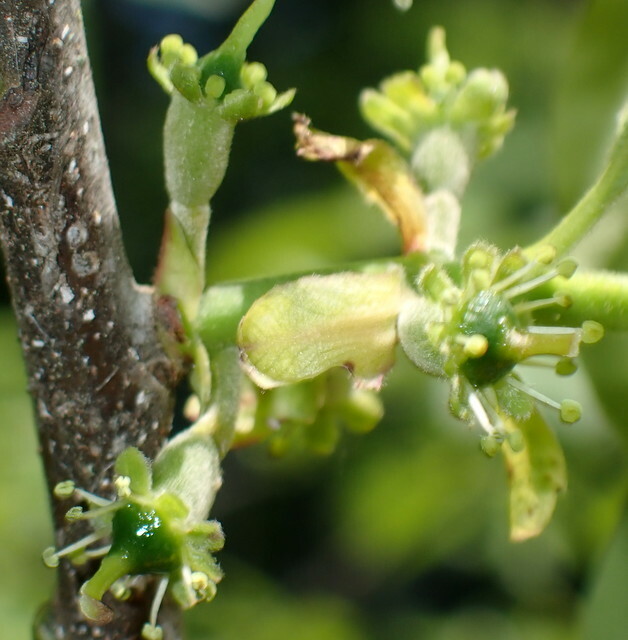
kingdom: Plantae
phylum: Tracheophyta
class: Magnoliopsida
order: Cornales
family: Nyssaceae
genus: Nyssa
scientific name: Nyssa ogeche
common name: Ogeechee tupelo
